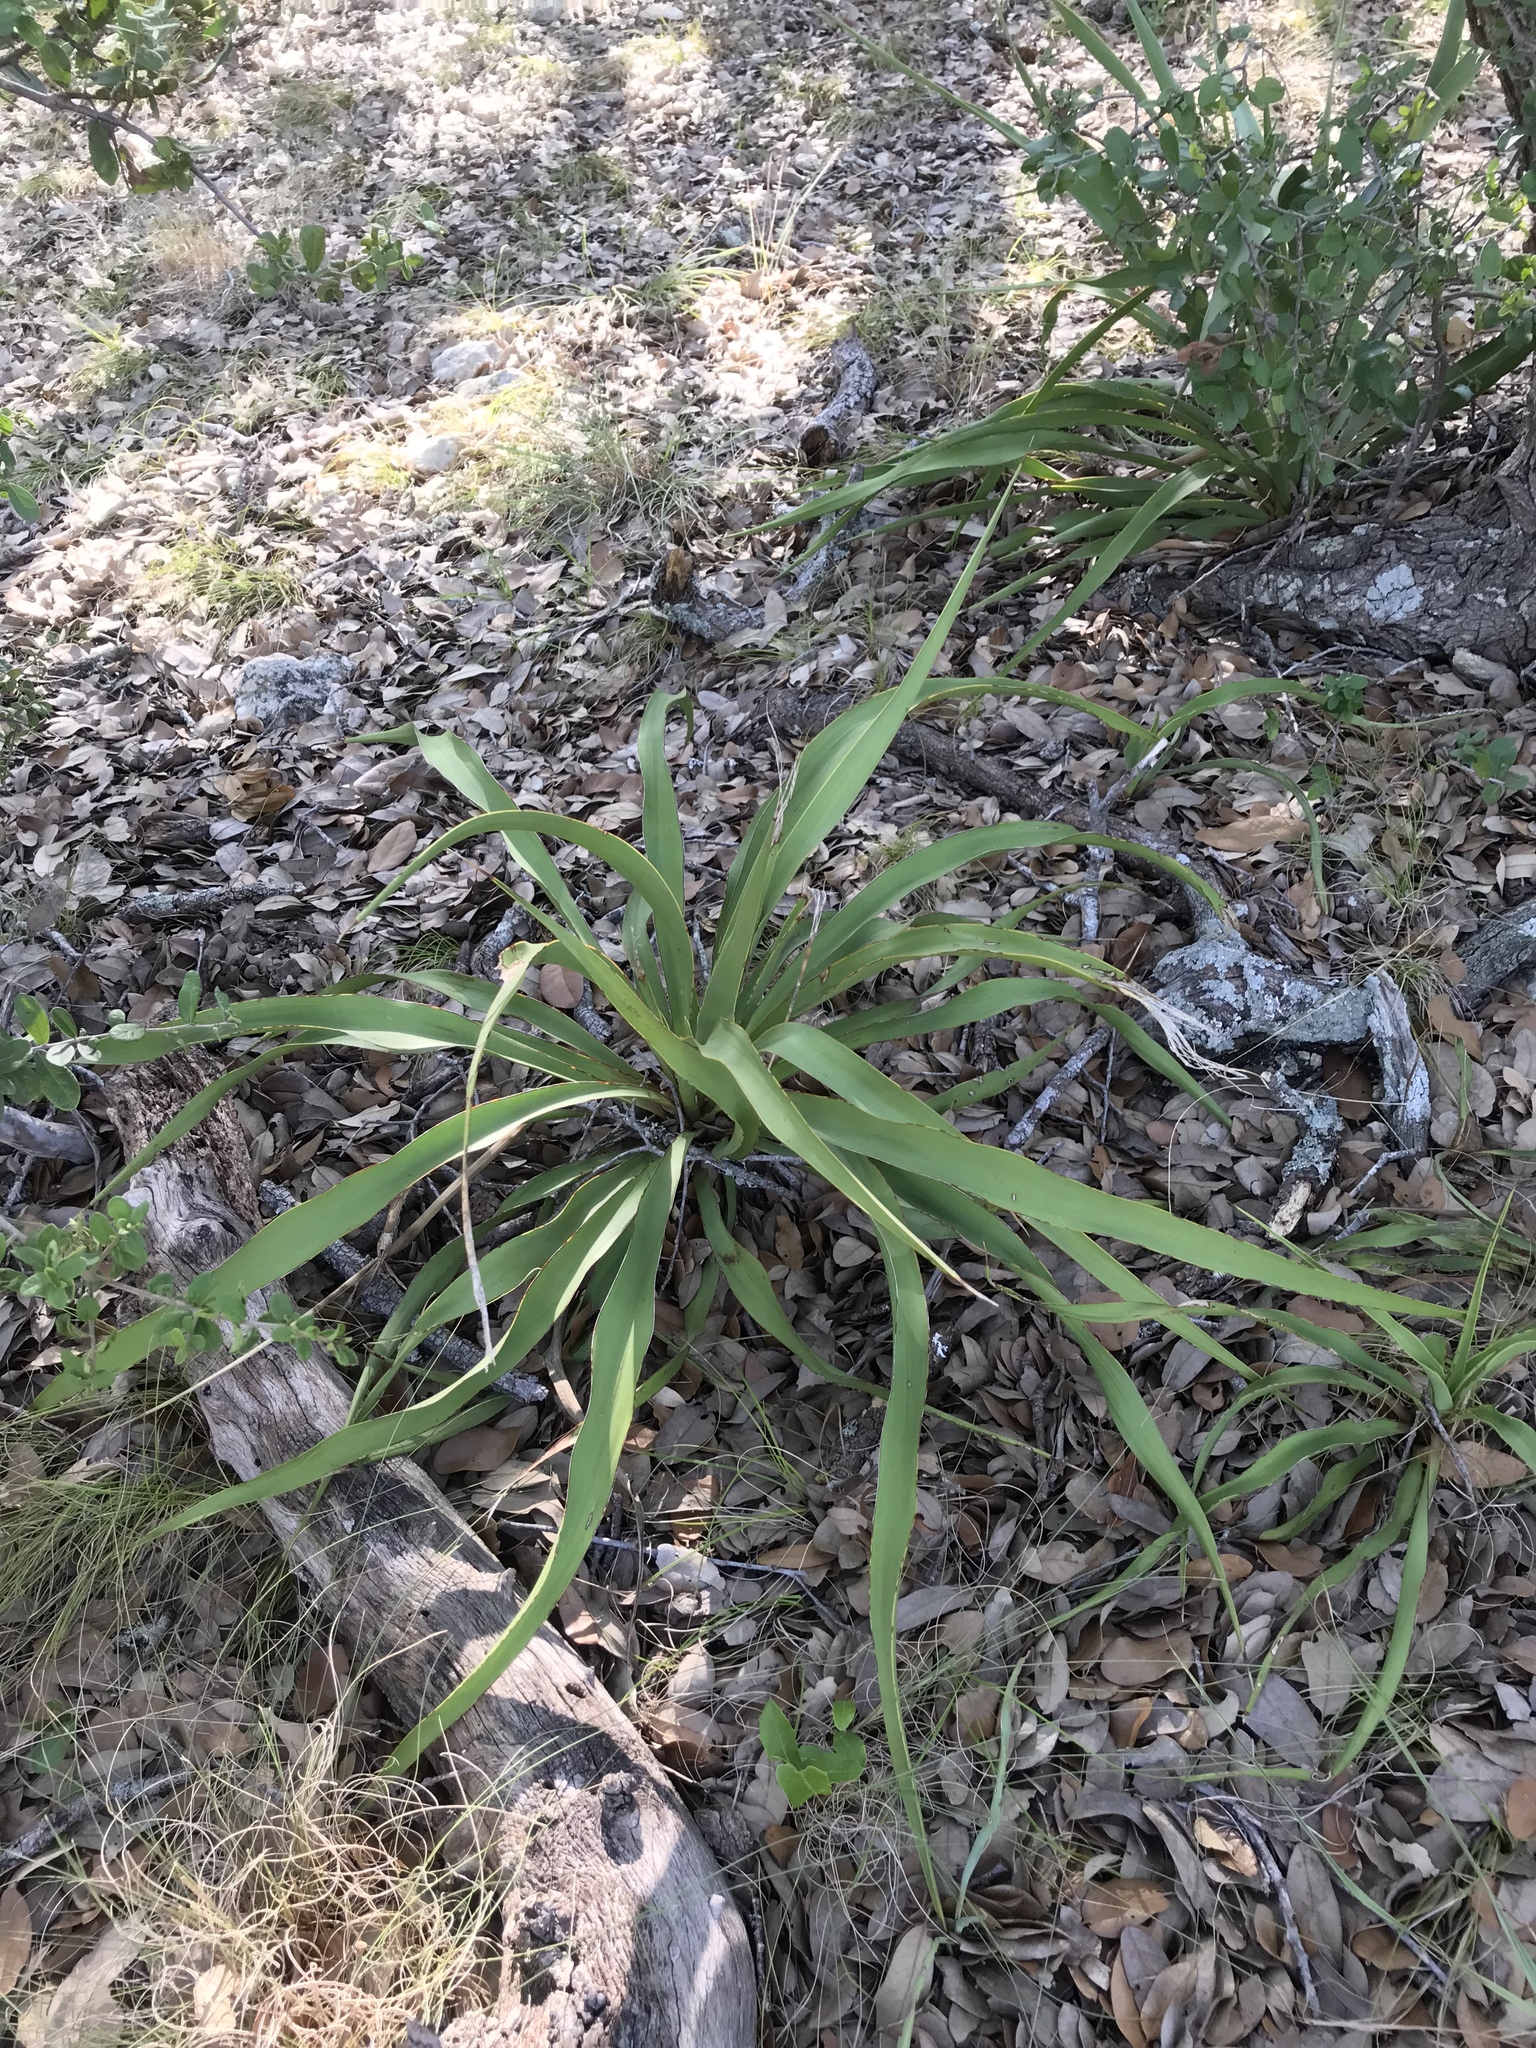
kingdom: Plantae
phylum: Tracheophyta
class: Liliopsida
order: Asparagales
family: Asparagaceae
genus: Yucca
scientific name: Yucca rupicola
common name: Twisted-leaf spanish-dagger
